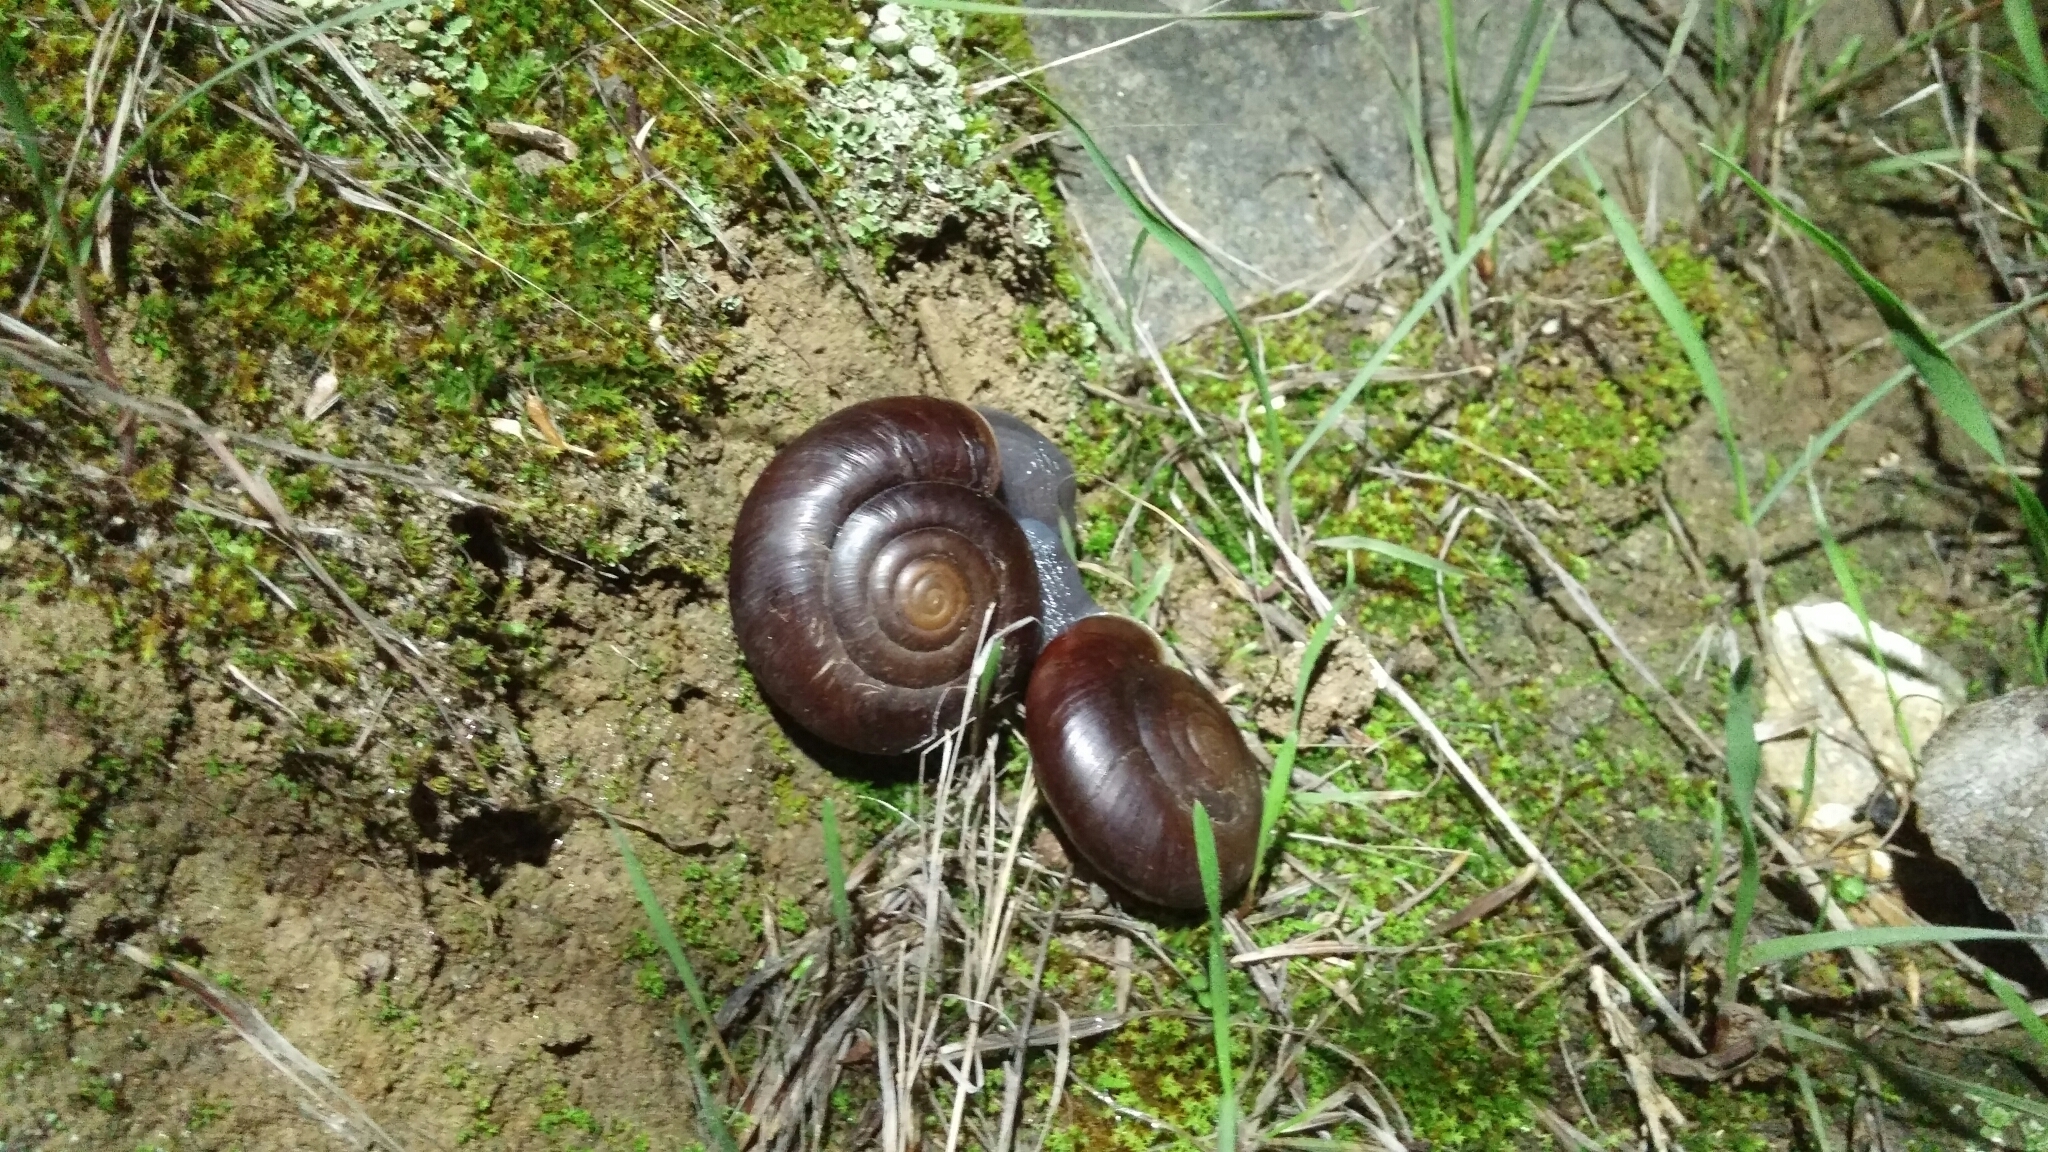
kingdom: Animalia
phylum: Mollusca
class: Gastropoda
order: Stylommatophora
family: Megomphicidae
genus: Glyptostoma
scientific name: Glyptostoma newberryanum
